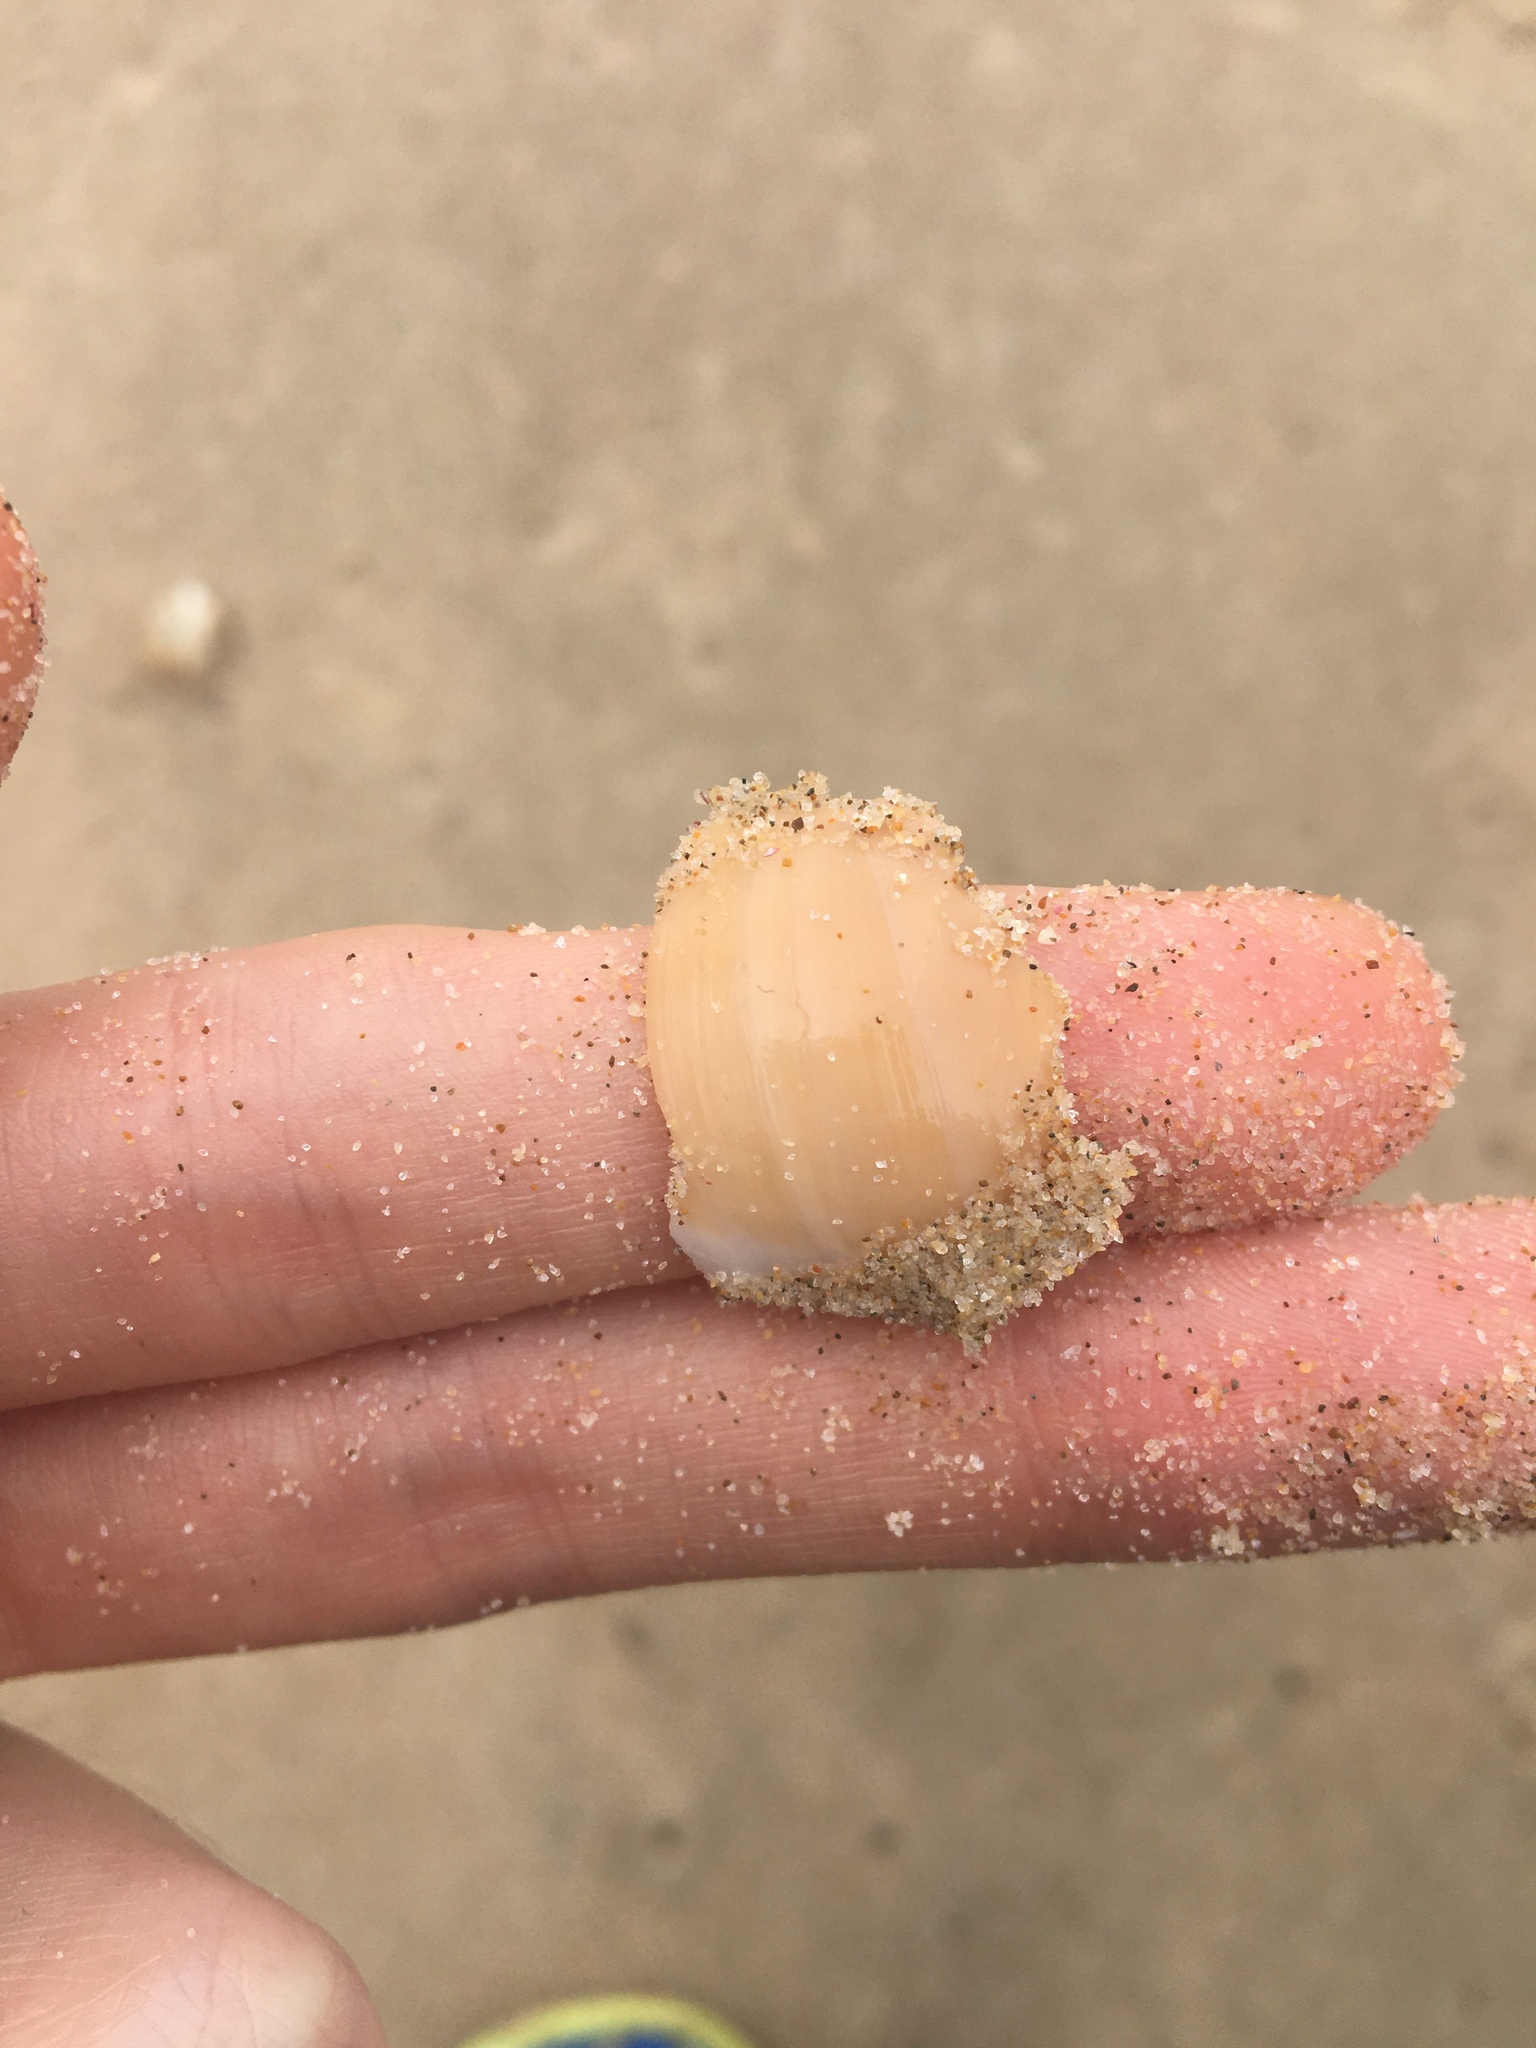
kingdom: Animalia
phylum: Mollusca
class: Gastropoda
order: Littorinimorpha
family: Naticidae
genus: Neverita
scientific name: Neverita didyma
